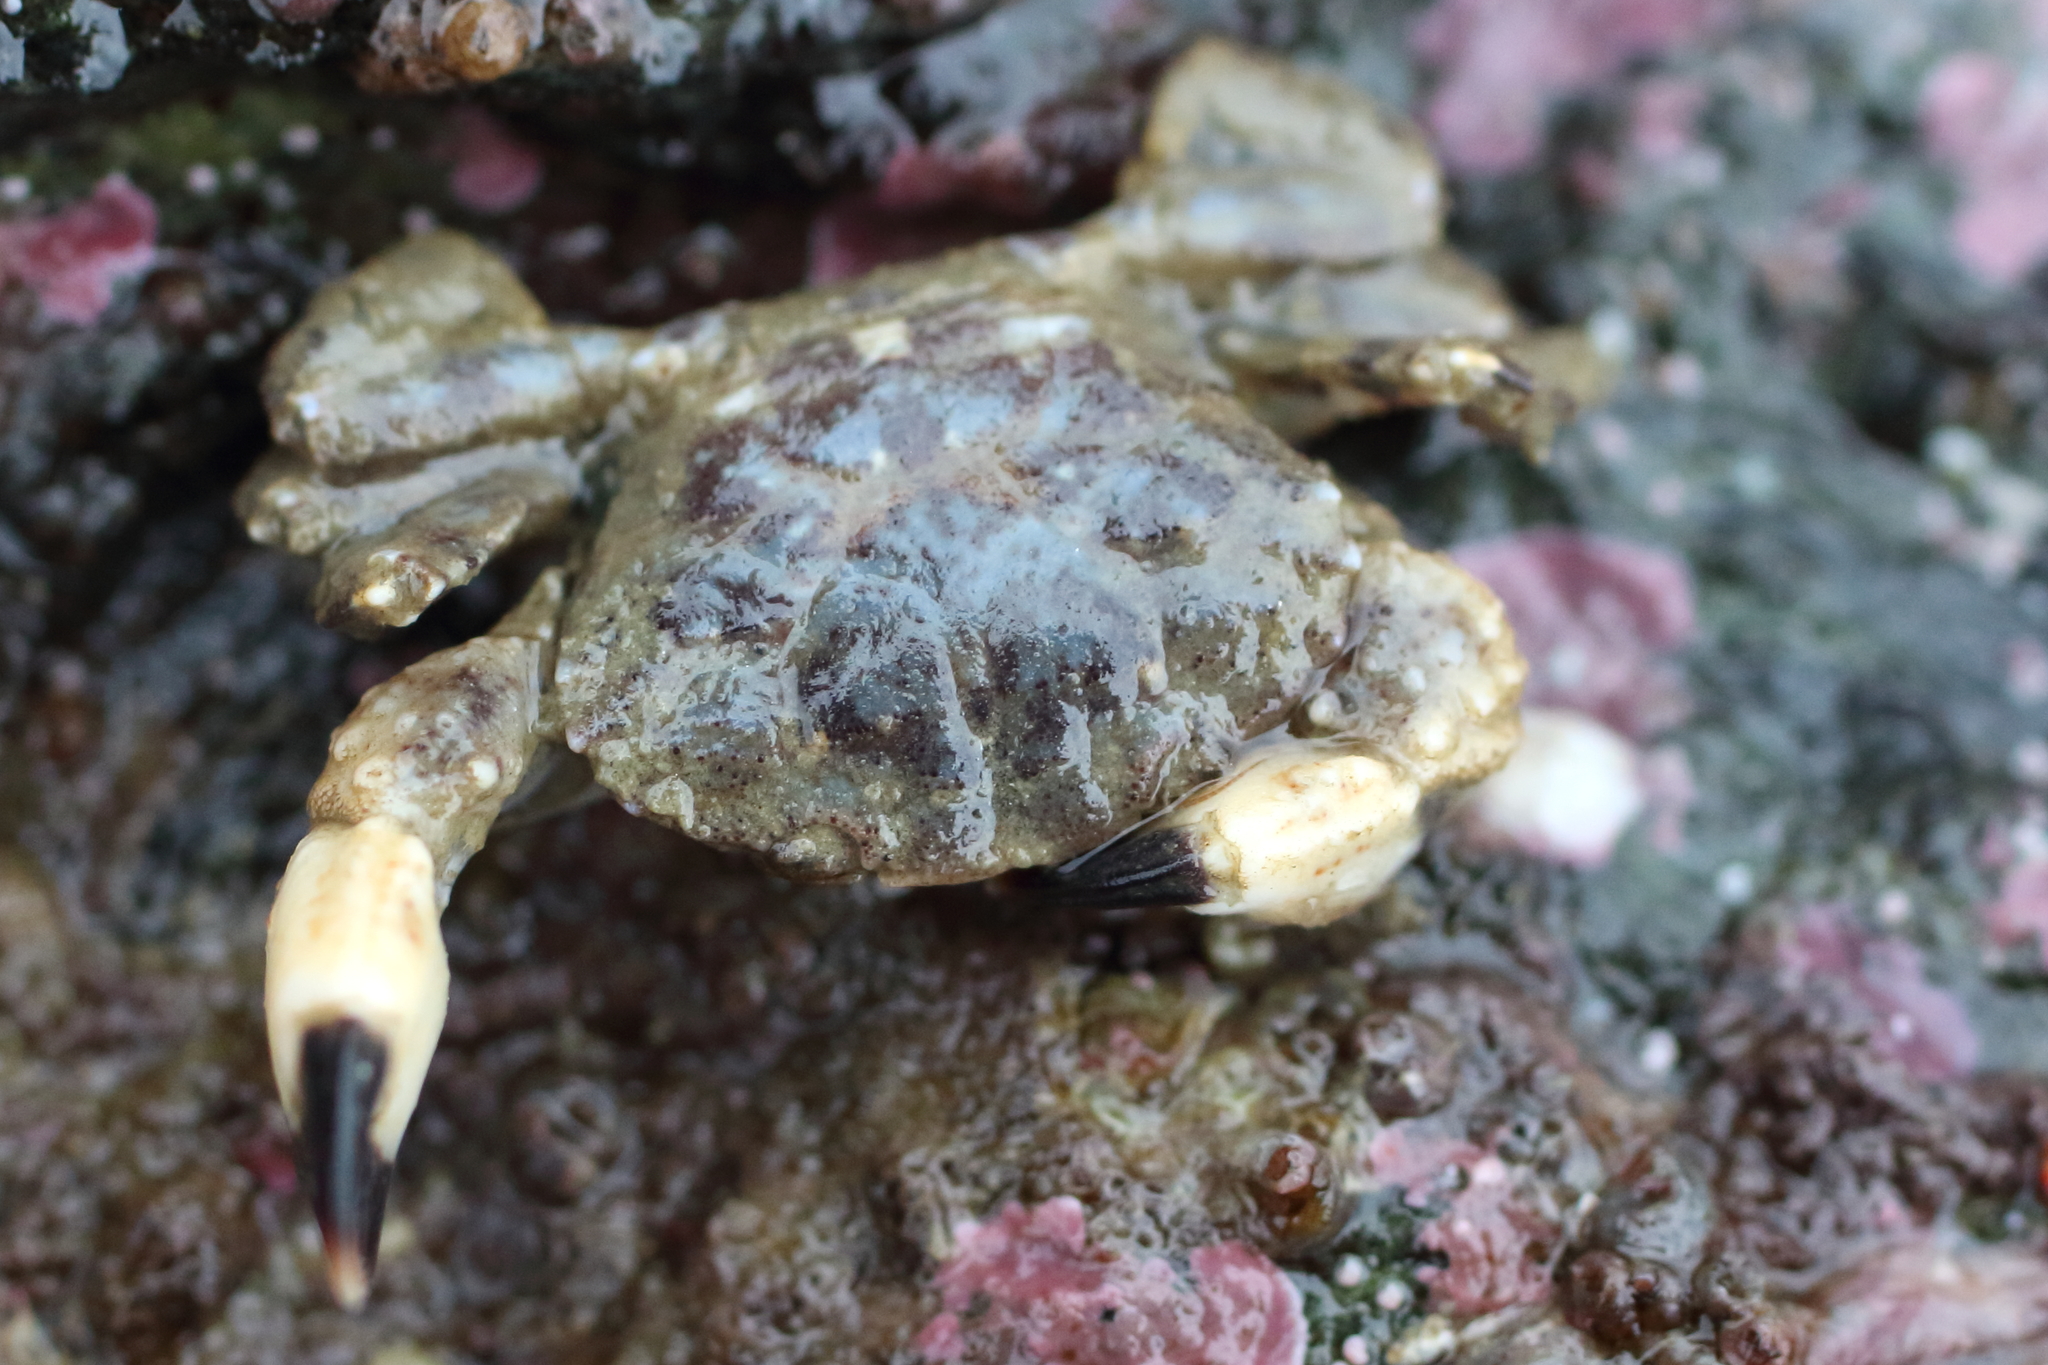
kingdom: Animalia
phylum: Arthropoda
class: Malacostraca
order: Decapoda
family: Panopeidae
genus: Lophopanopeus
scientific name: Lophopanopeus bellus
